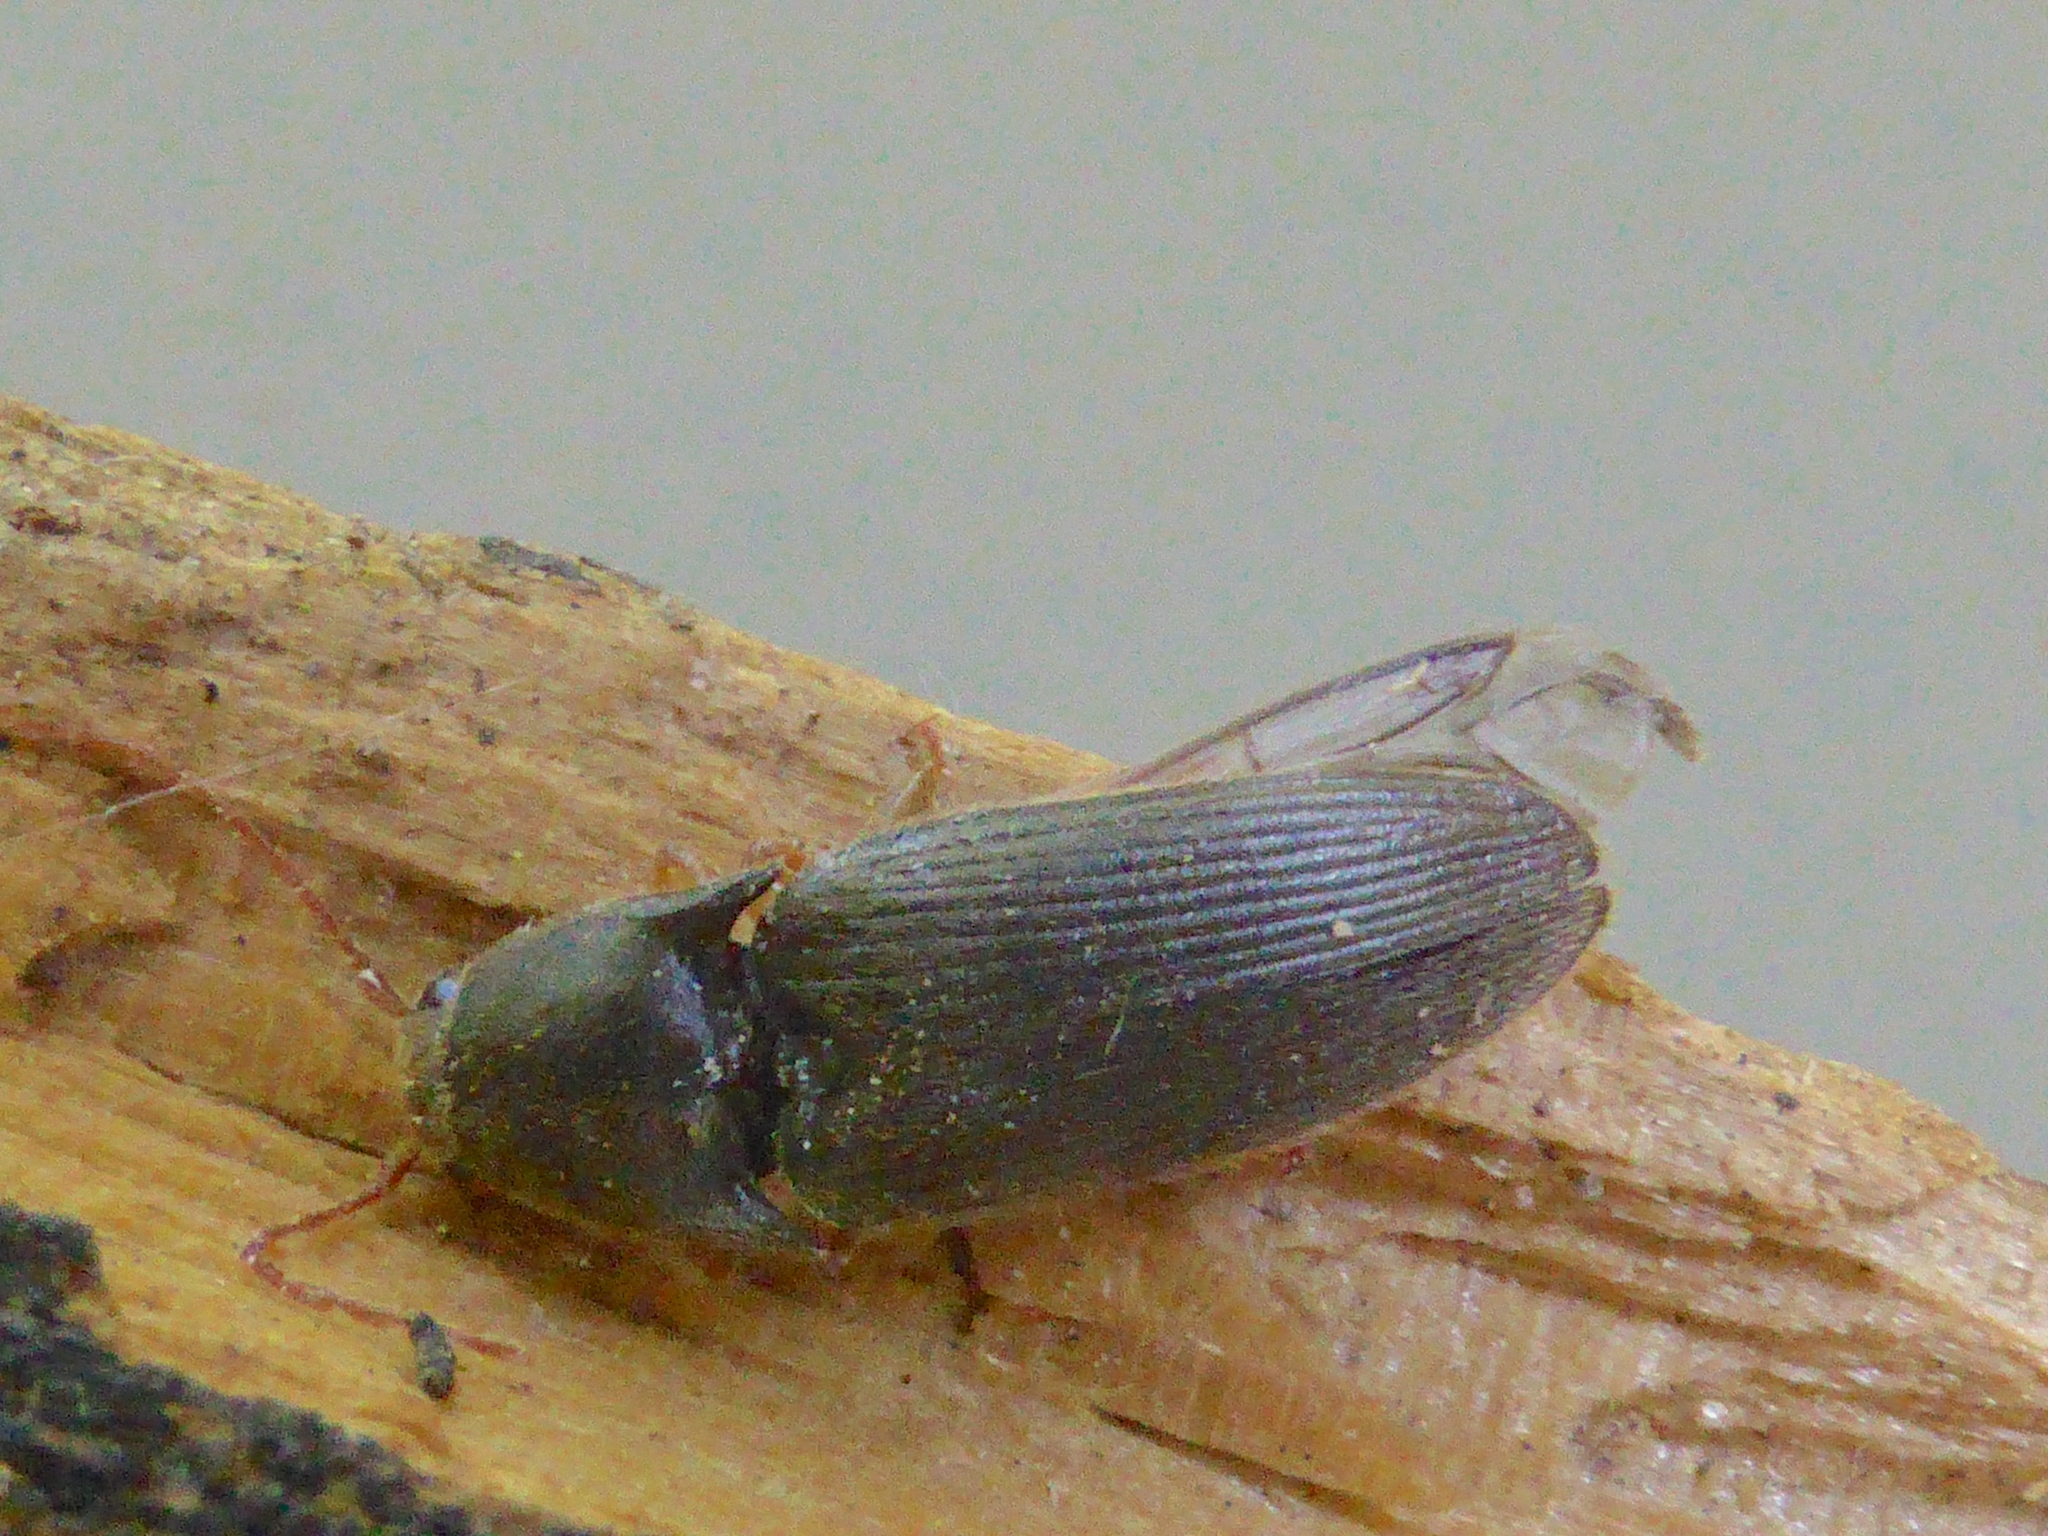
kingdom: Animalia
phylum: Arthropoda
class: Insecta
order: Coleoptera
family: Elateridae
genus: Conoderus
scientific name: Conoderus exsul
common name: Click beetle
